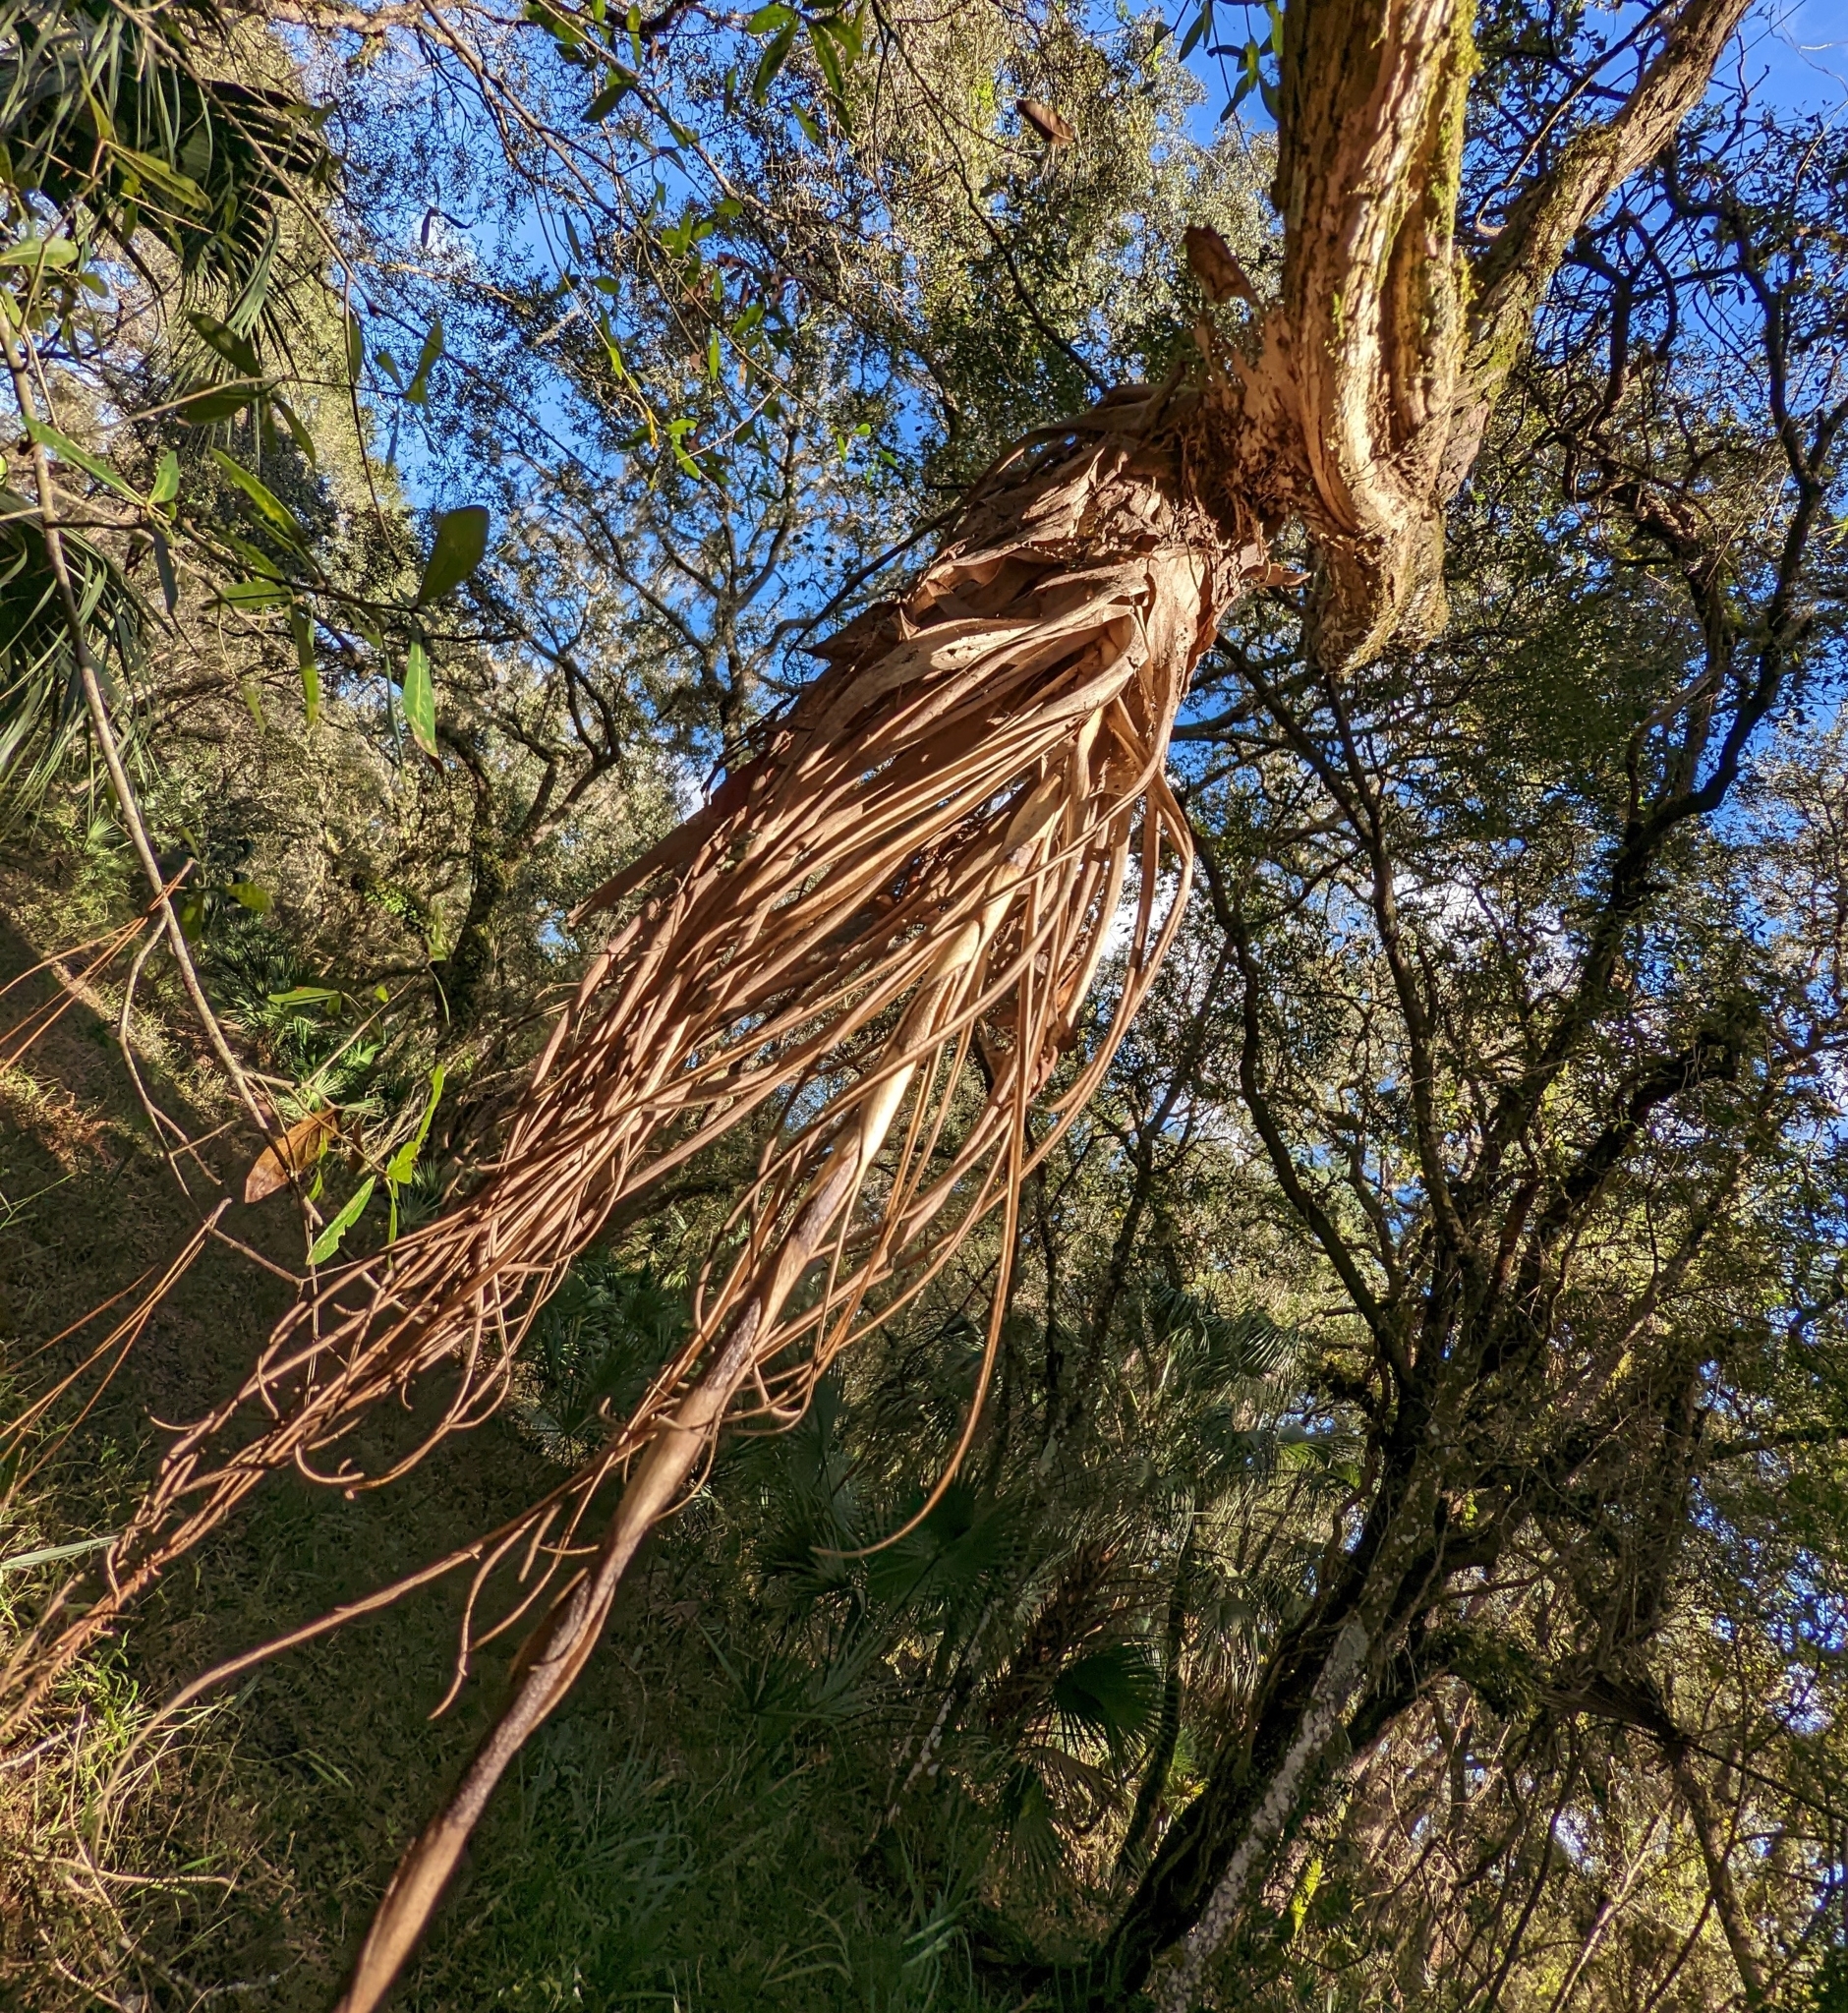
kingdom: Plantae
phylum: Tracheophyta
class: Liliopsida
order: Poales
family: Bromeliaceae
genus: Tillandsia
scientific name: Tillandsia utriculata
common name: Wild pine
